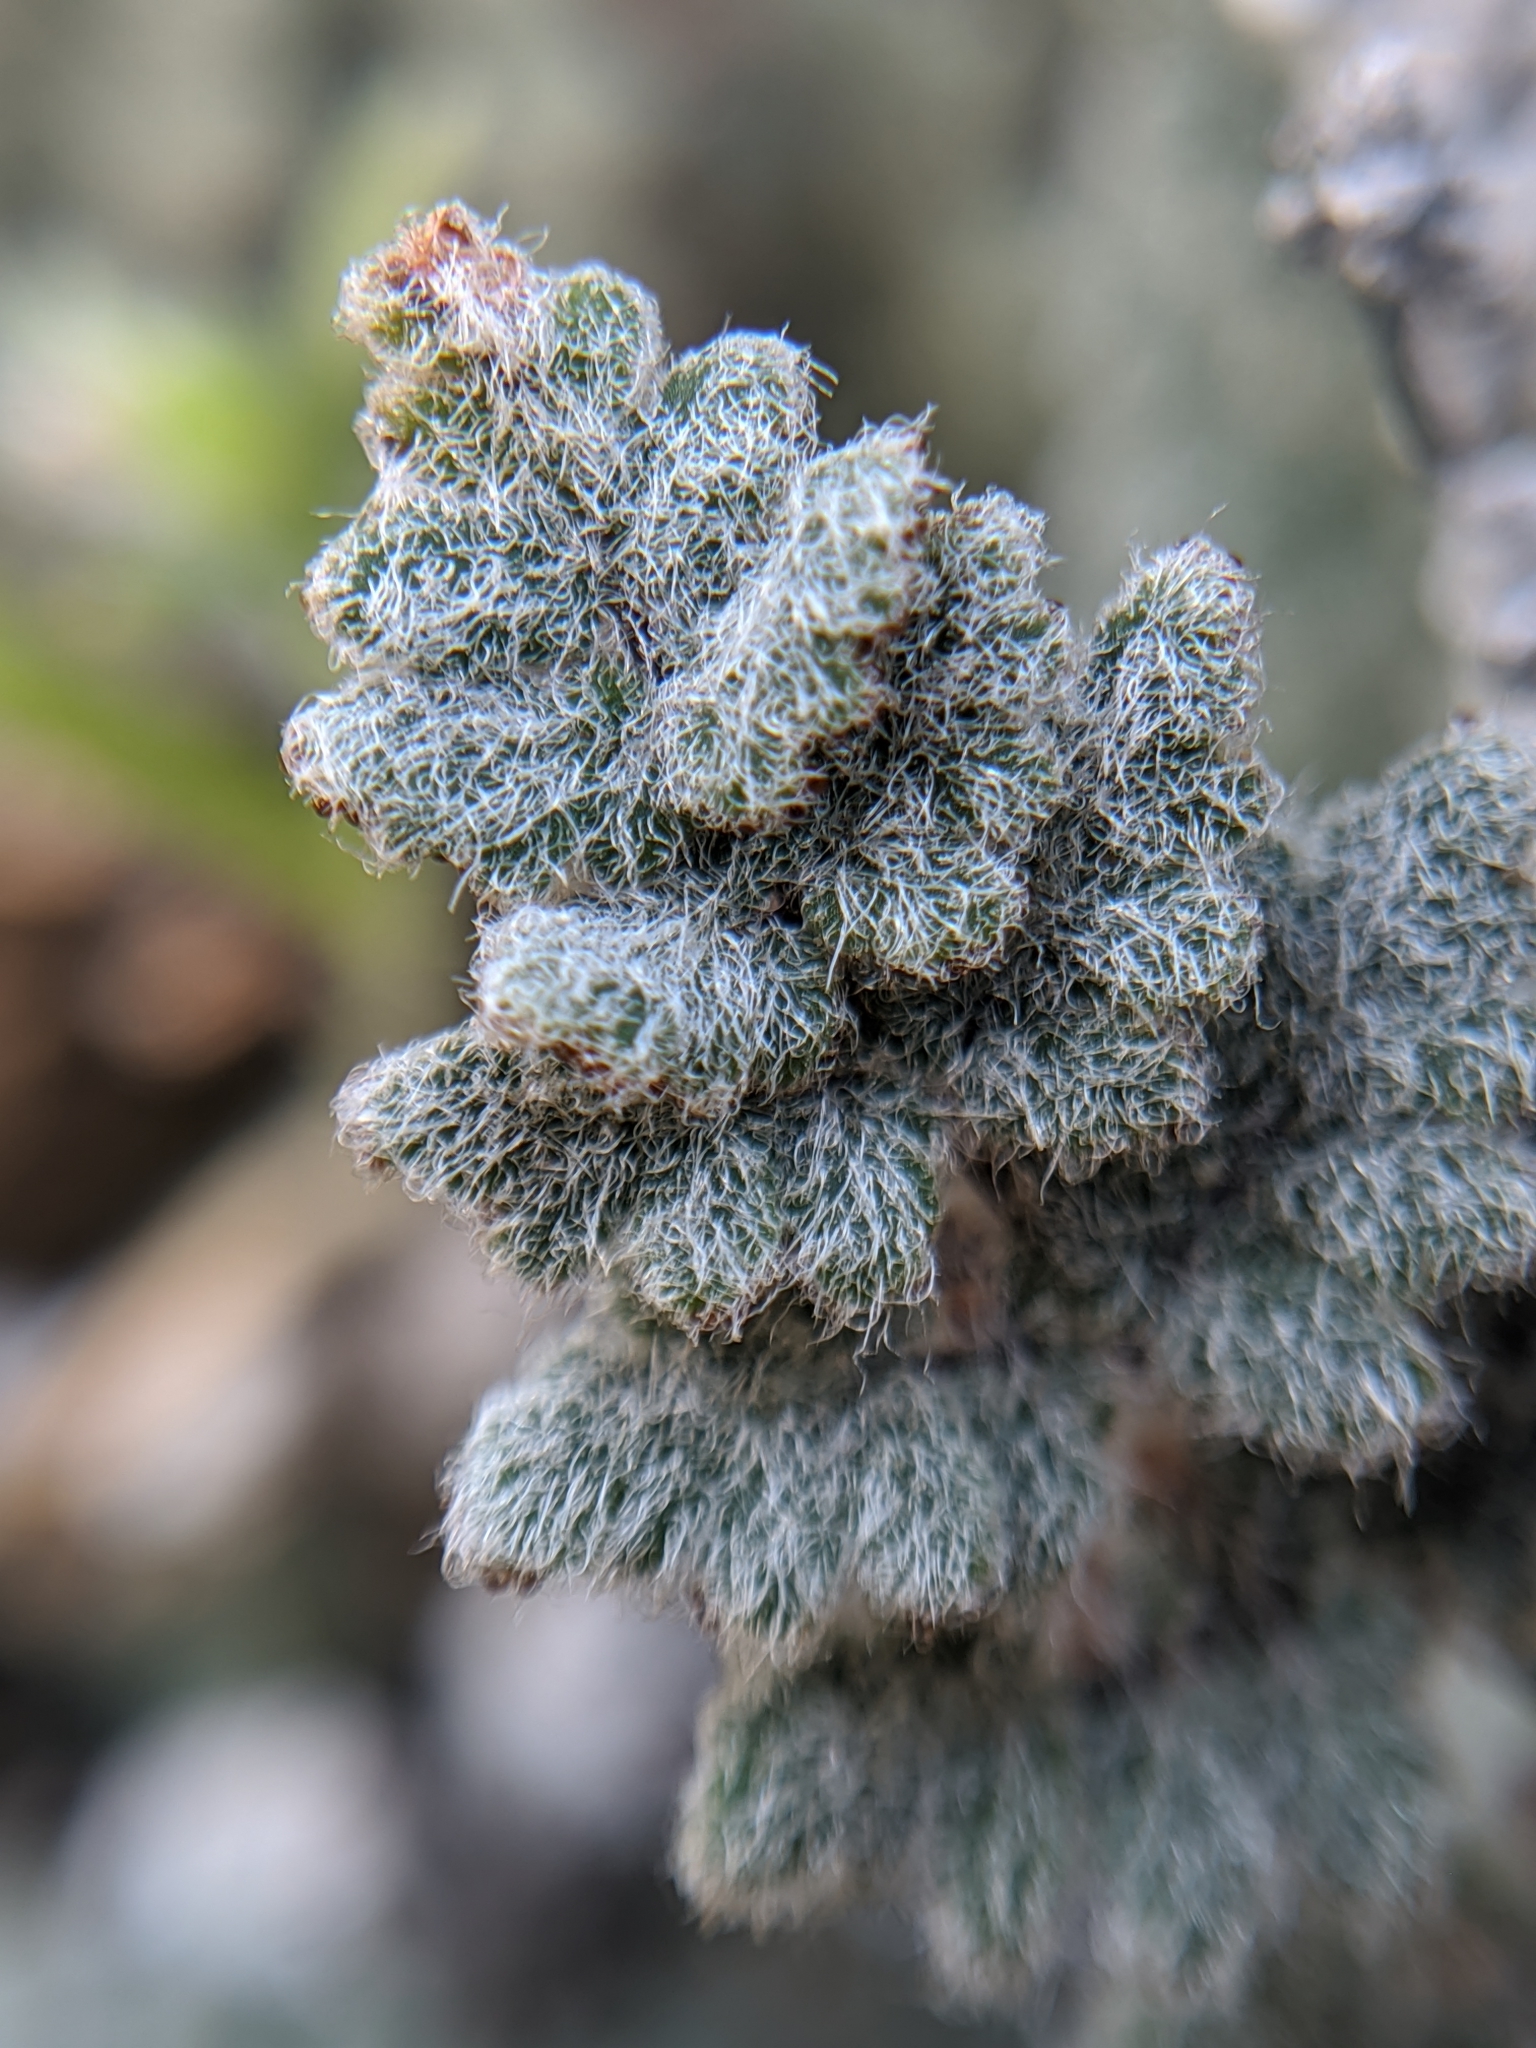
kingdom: Plantae
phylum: Tracheophyta
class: Polypodiopsida
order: Polypodiales
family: Pteridaceae
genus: Myriopteris
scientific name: Myriopteris parryi
